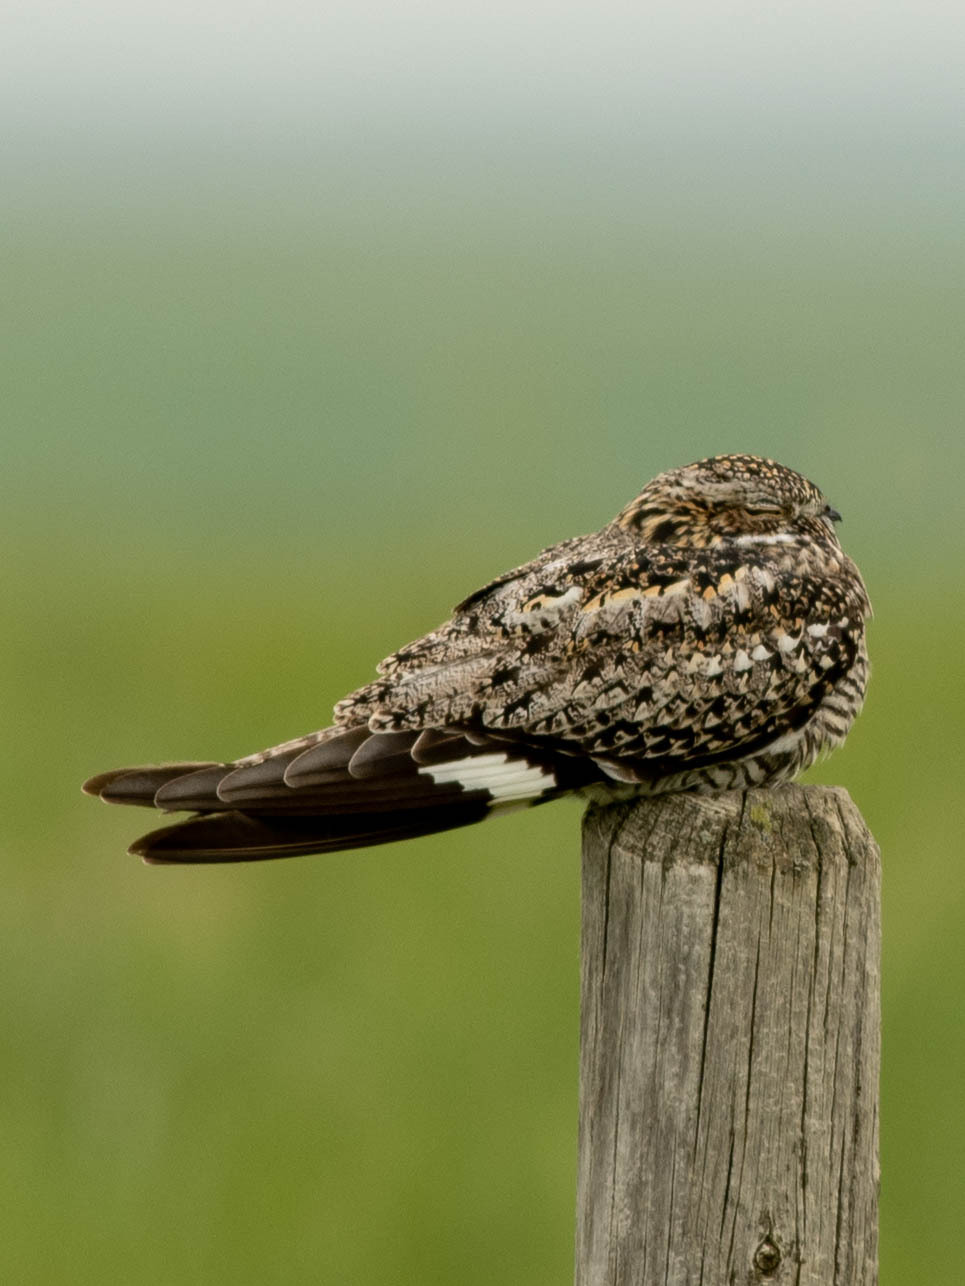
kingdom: Animalia
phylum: Chordata
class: Aves
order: Caprimulgiformes
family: Caprimulgidae
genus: Chordeiles
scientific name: Chordeiles minor
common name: Common nighthawk
